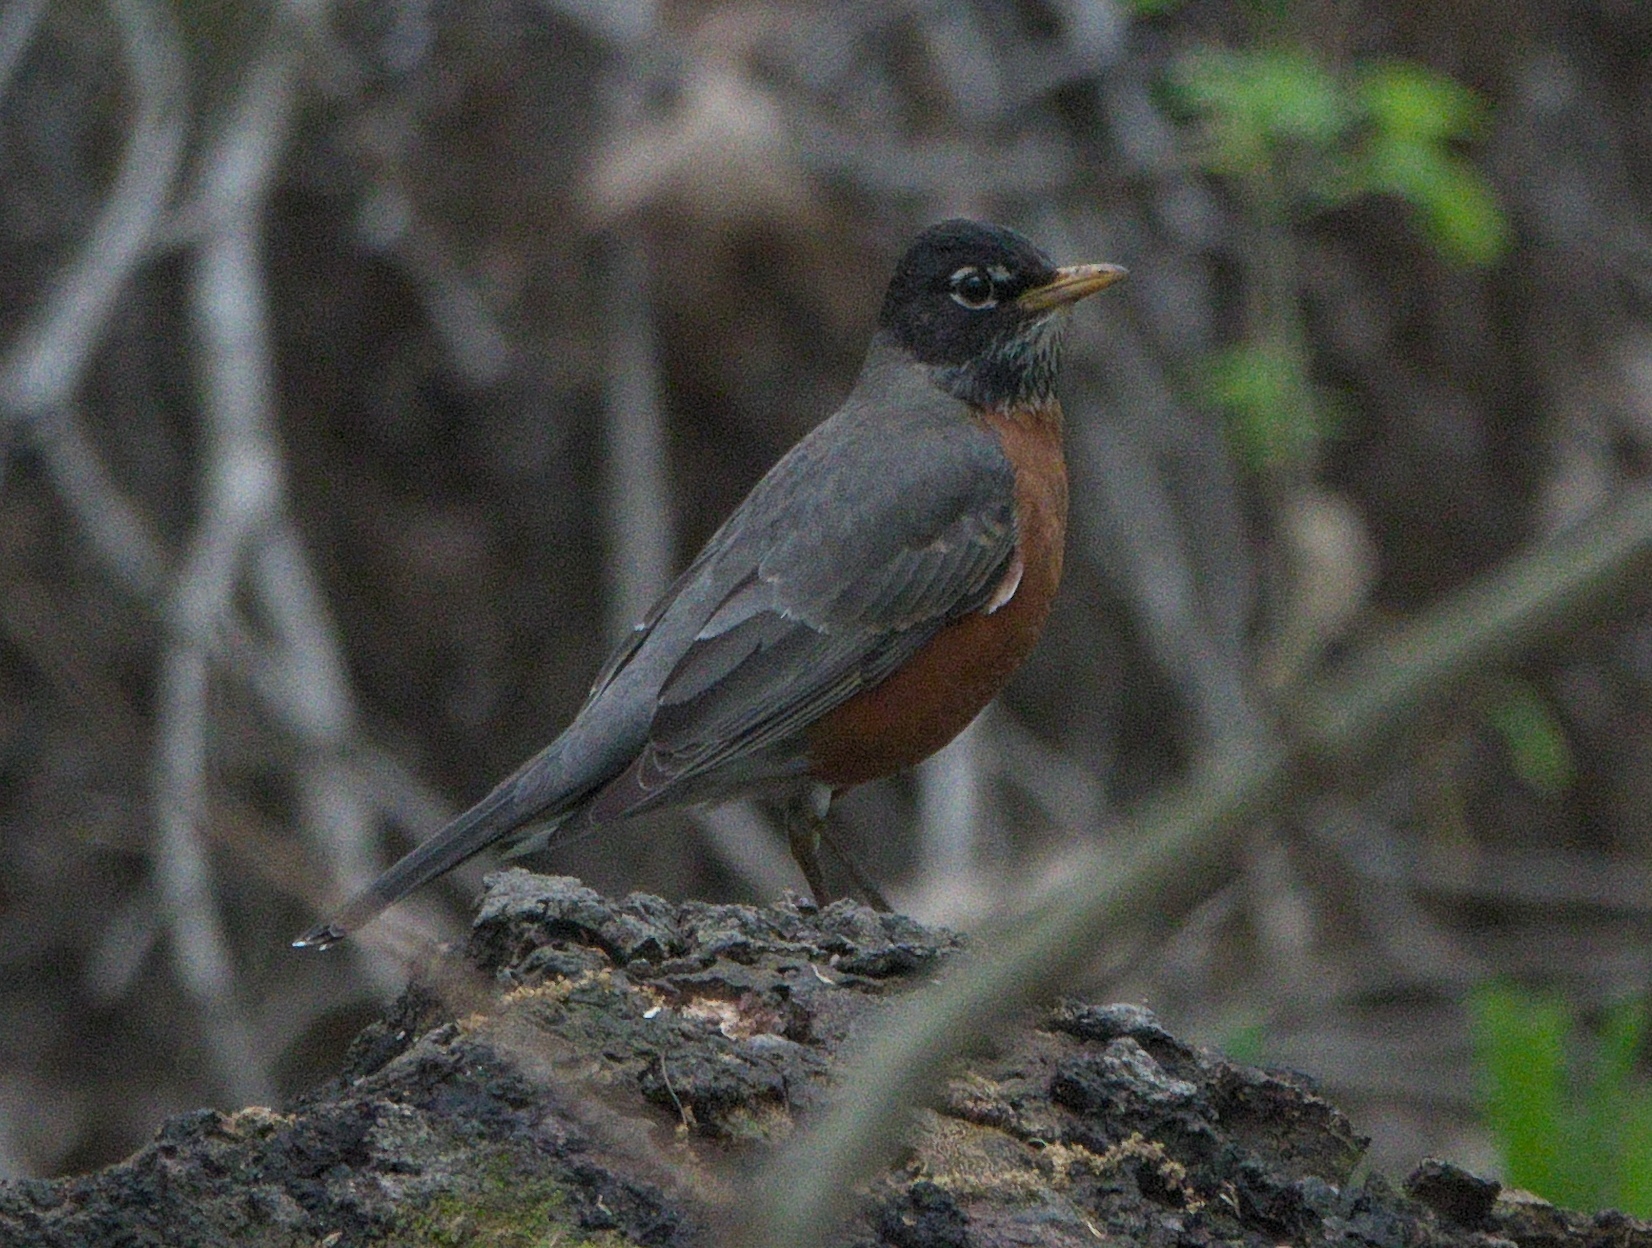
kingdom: Animalia
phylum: Chordata
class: Aves
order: Passeriformes
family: Turdidae
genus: Turdus
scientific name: Turdus migratorius
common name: American robin
